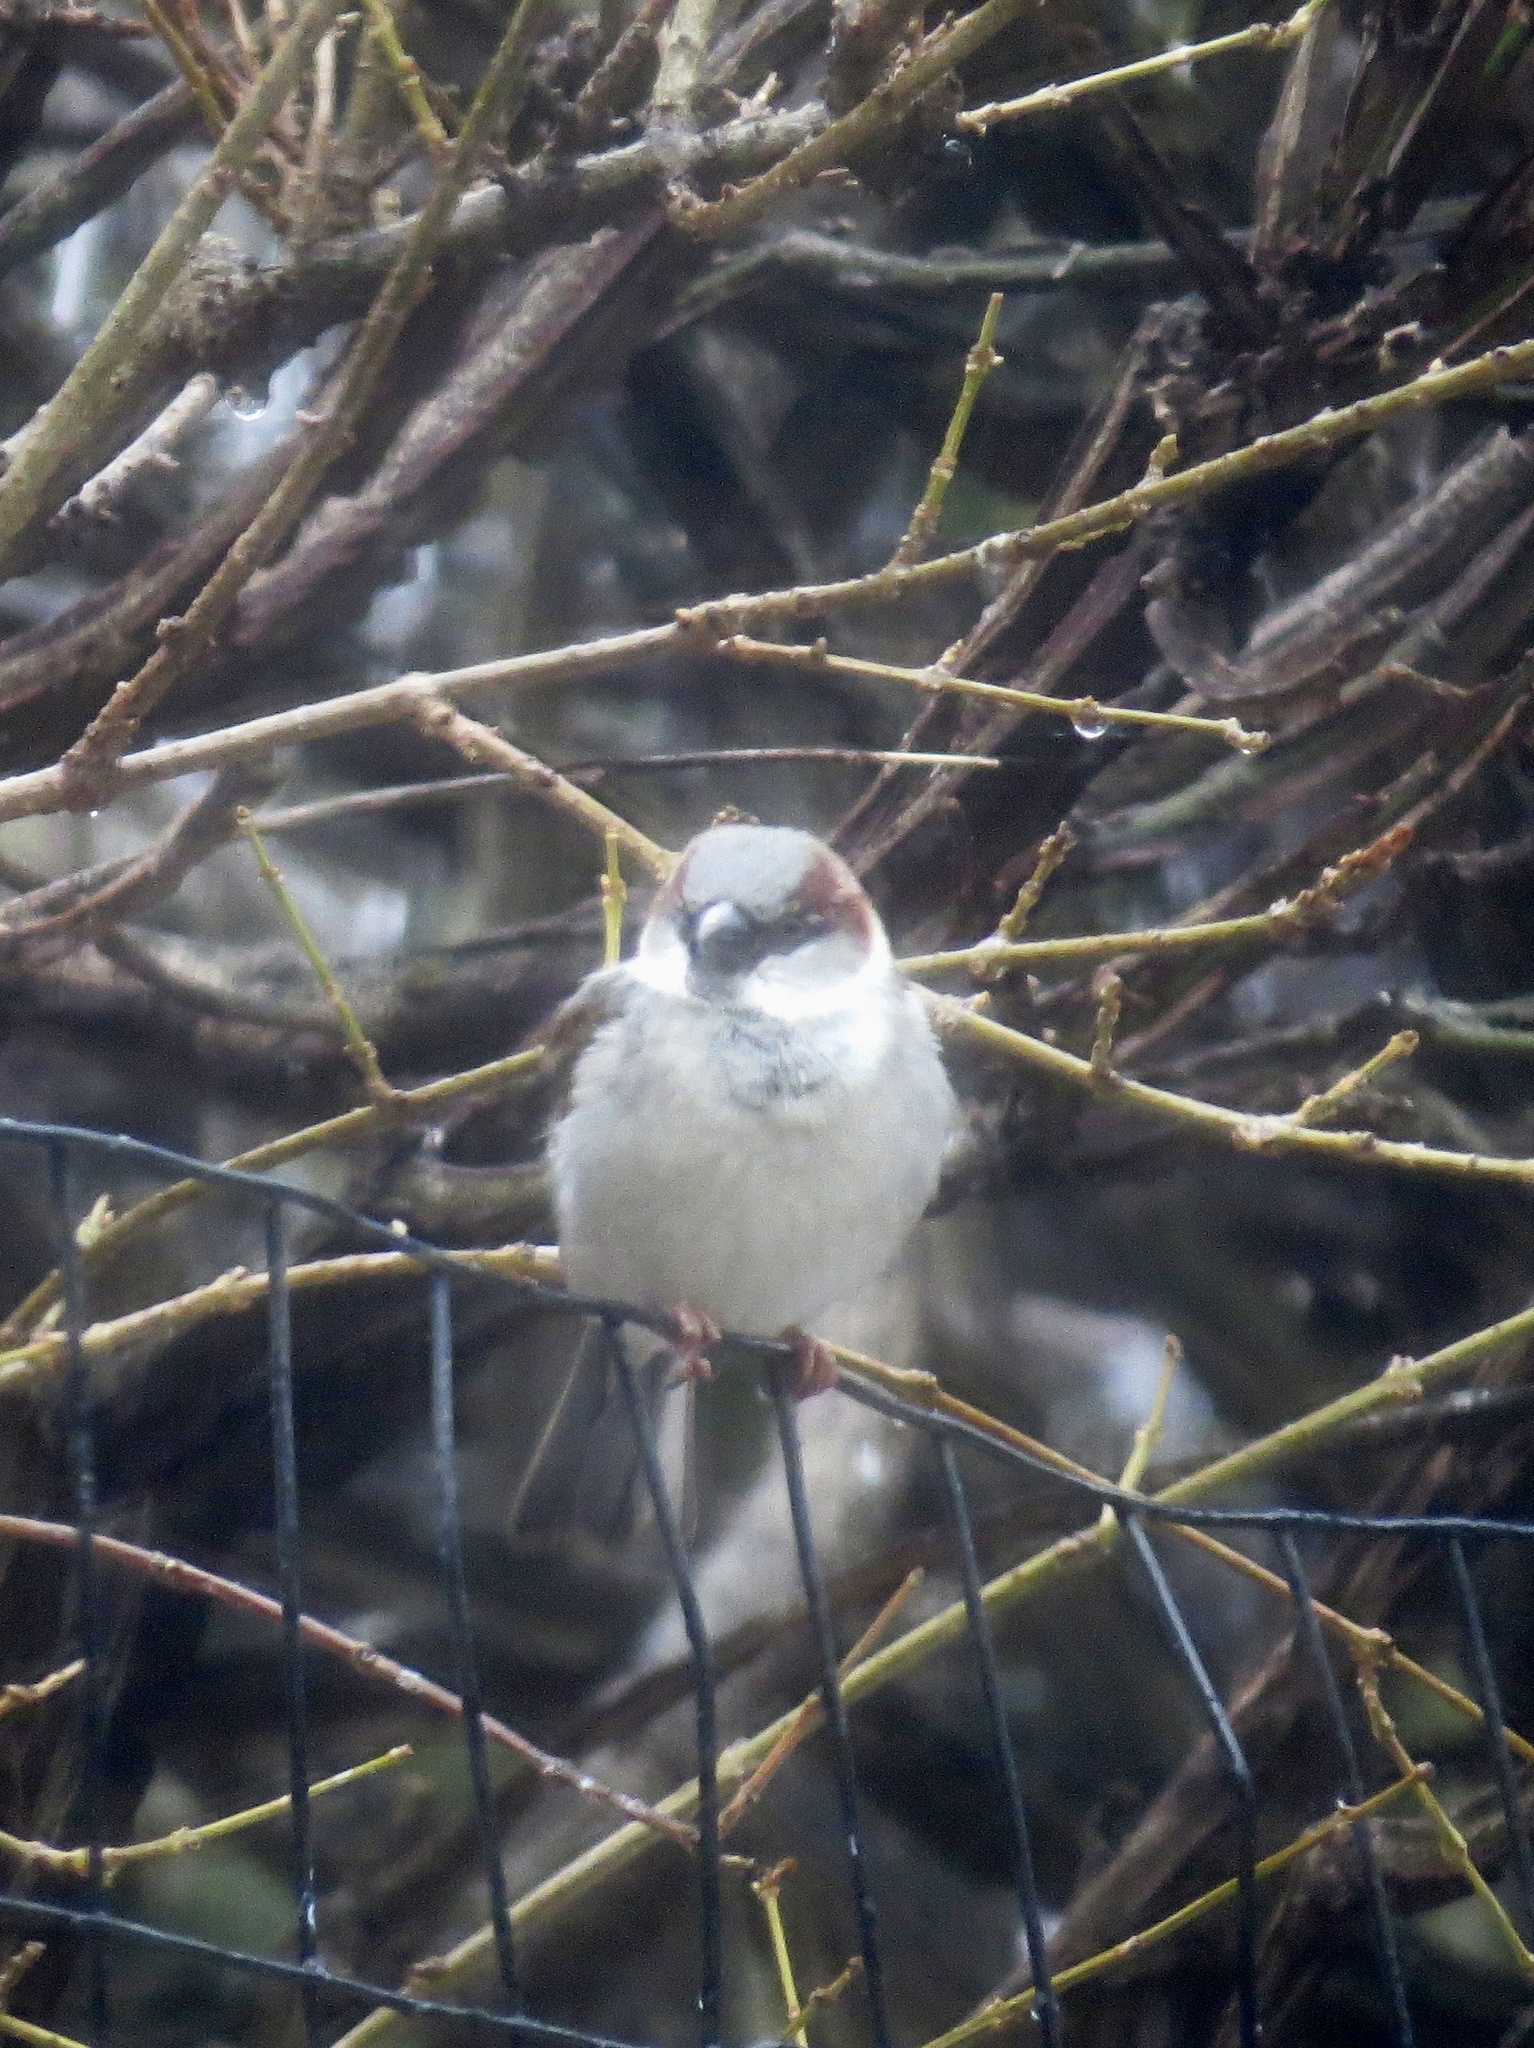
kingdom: Animalia
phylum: Chordata
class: Aves
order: Passeriformes
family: Passeridae
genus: Passer
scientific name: Passer domesticus
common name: House sparrow
